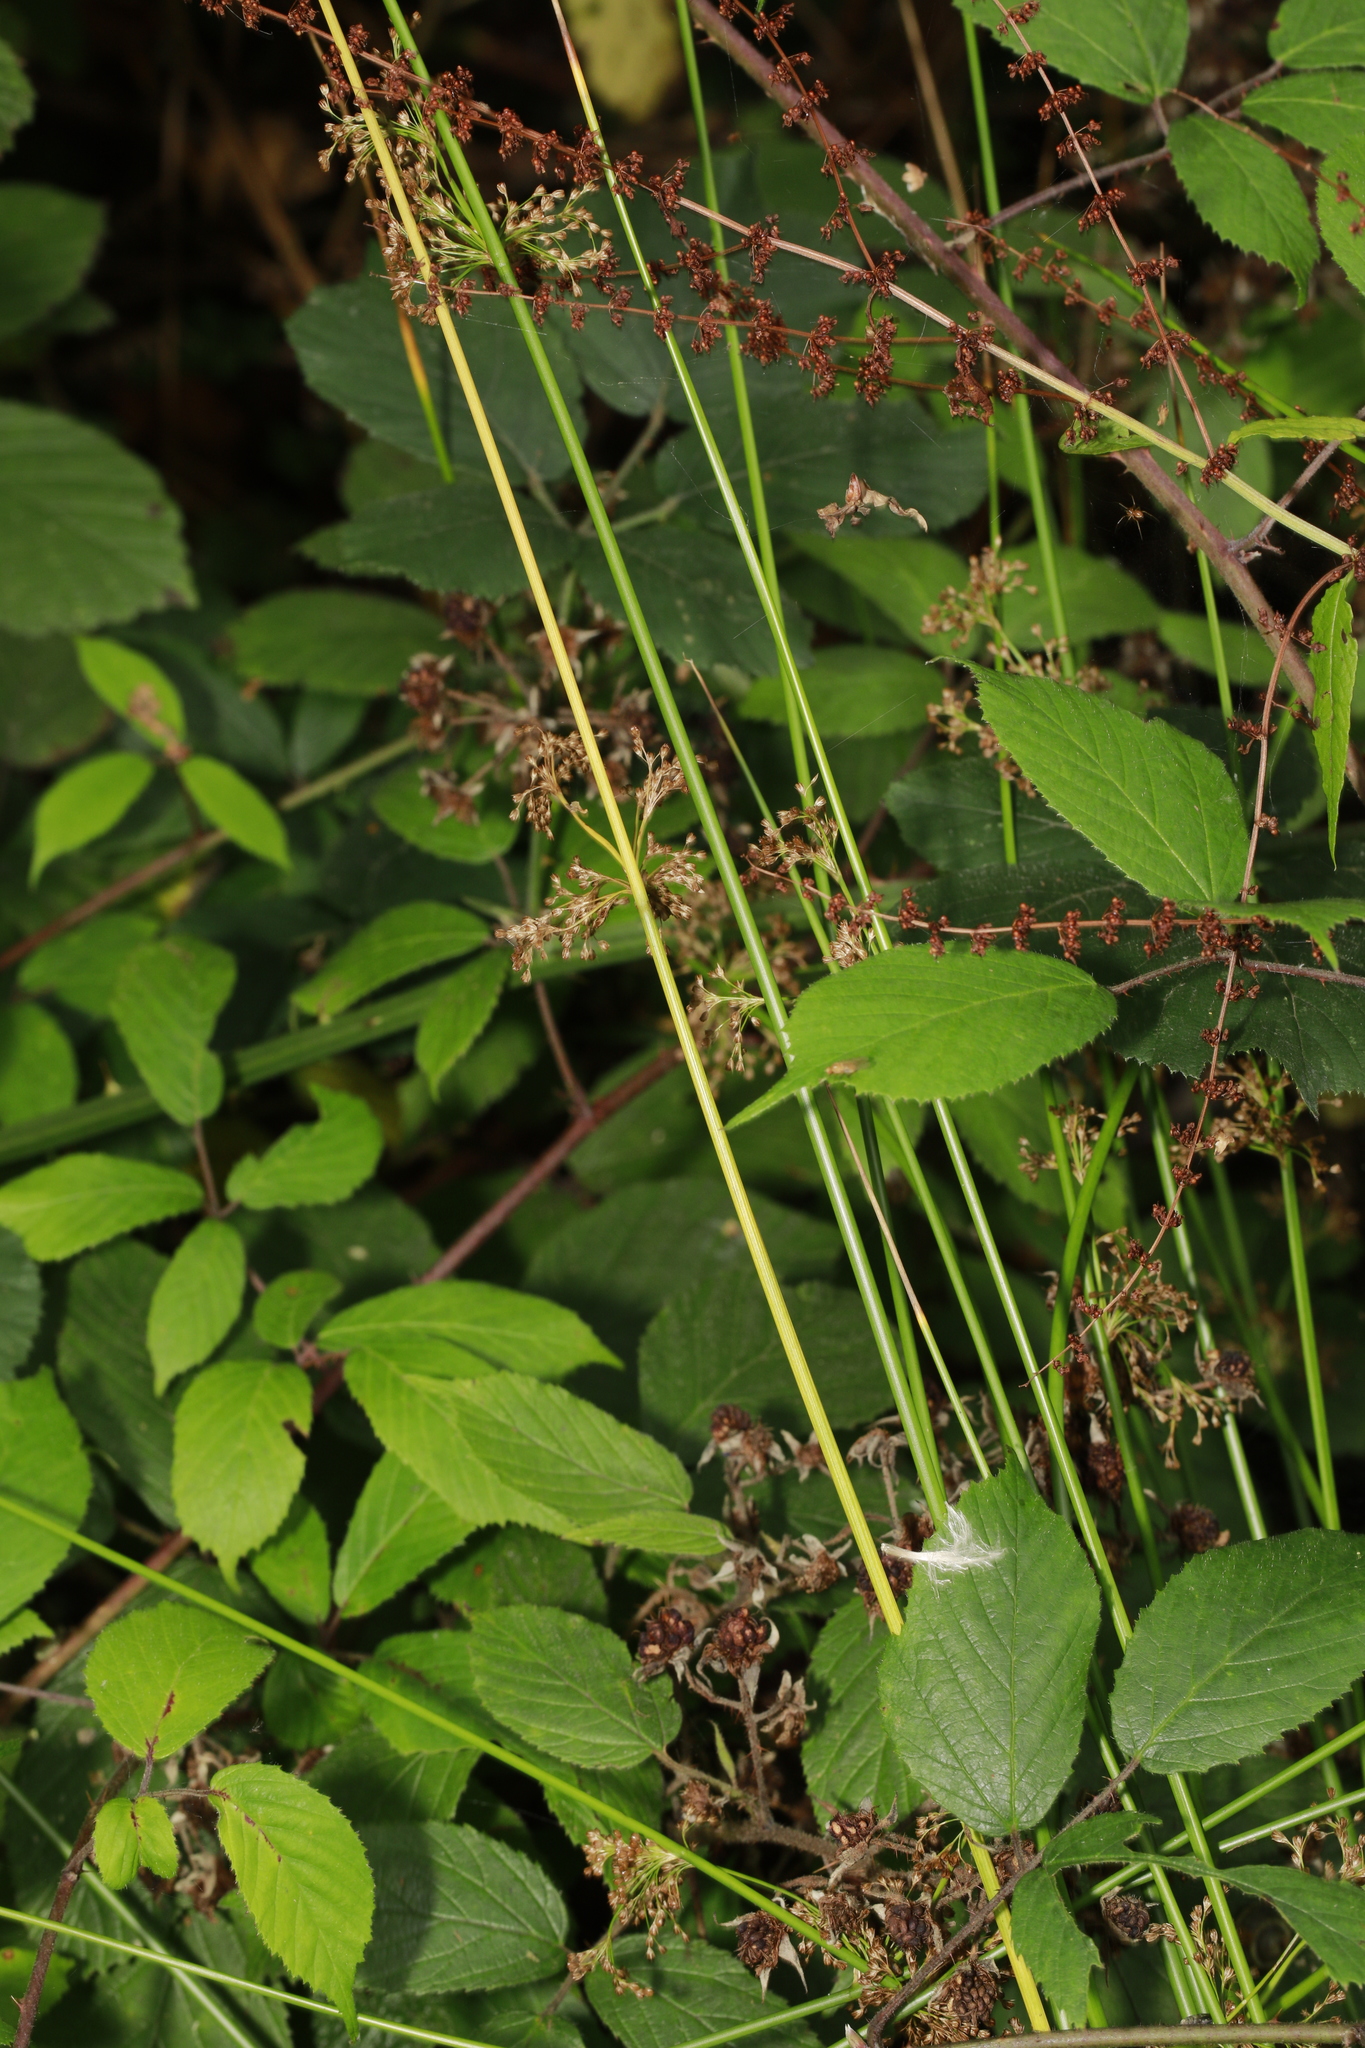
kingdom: Plantae
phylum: Tracheophyta
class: Liliopsida
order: Poales
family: Juncaceae
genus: Juncus
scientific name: Juncus effusus
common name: Soft rush
